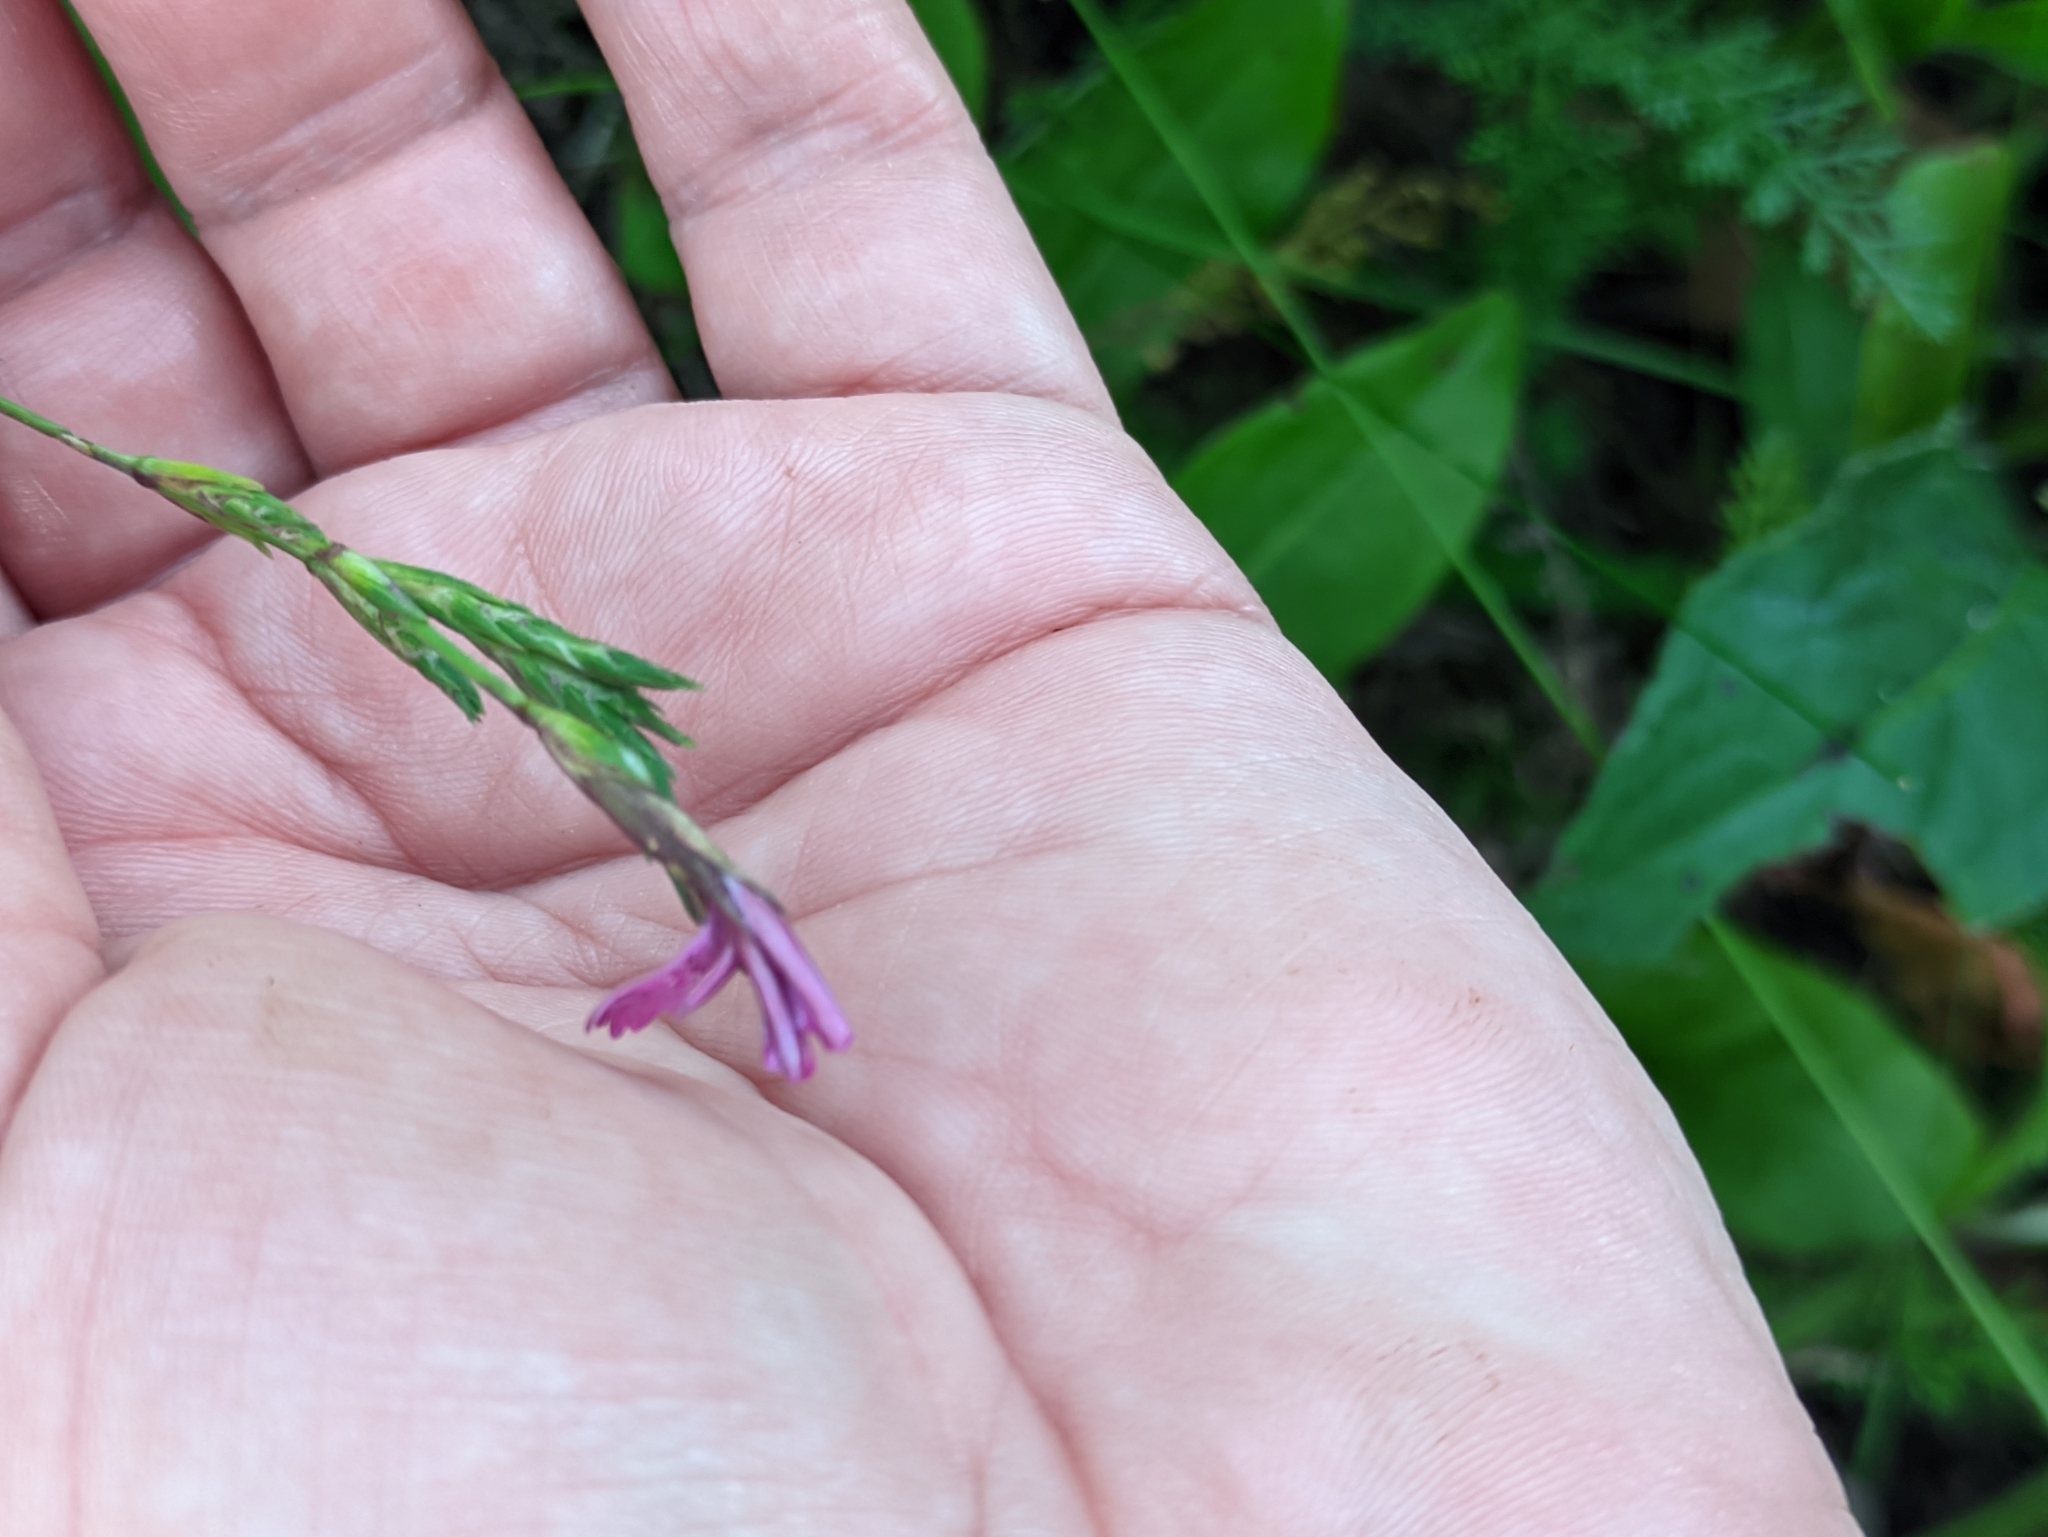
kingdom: Plantae
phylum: Tracheophyta
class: Magnoliopsida
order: Caryophyllales
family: Caryophyllaceae
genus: Dianthus
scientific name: Dianthus deltoides
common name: Maiden pink
